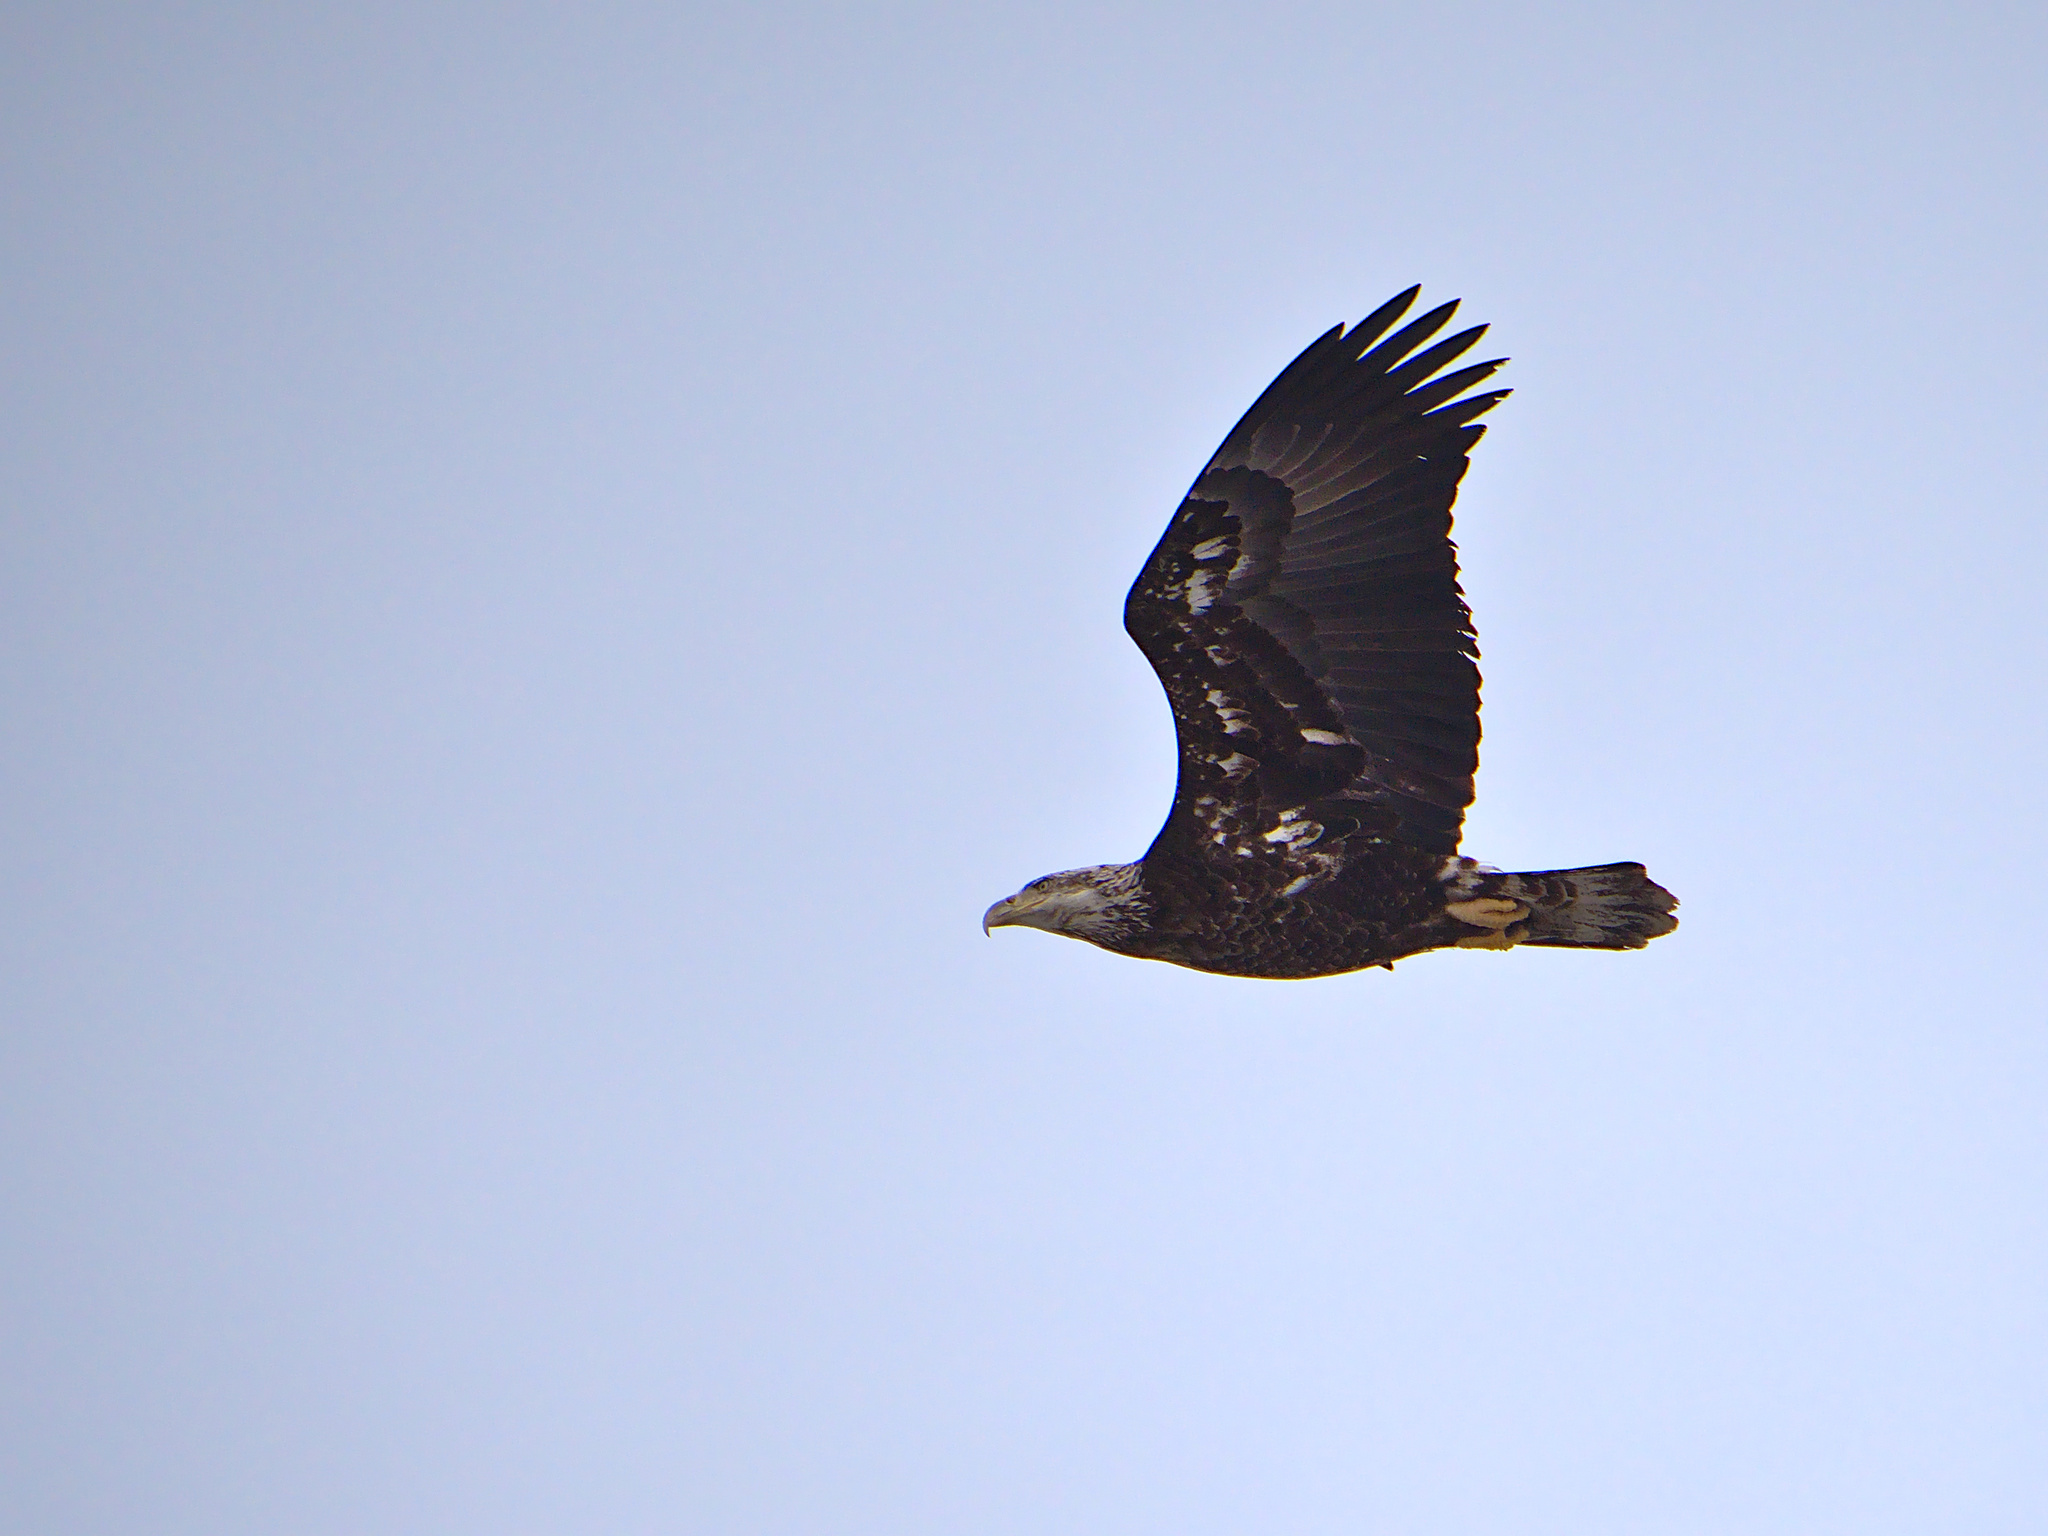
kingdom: Animalia
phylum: Chordata
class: Aves
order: Accipitriformes
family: Accipitridae
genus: Haliaeetus
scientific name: Haliaeetus leucocephalus
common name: Bald eagle
